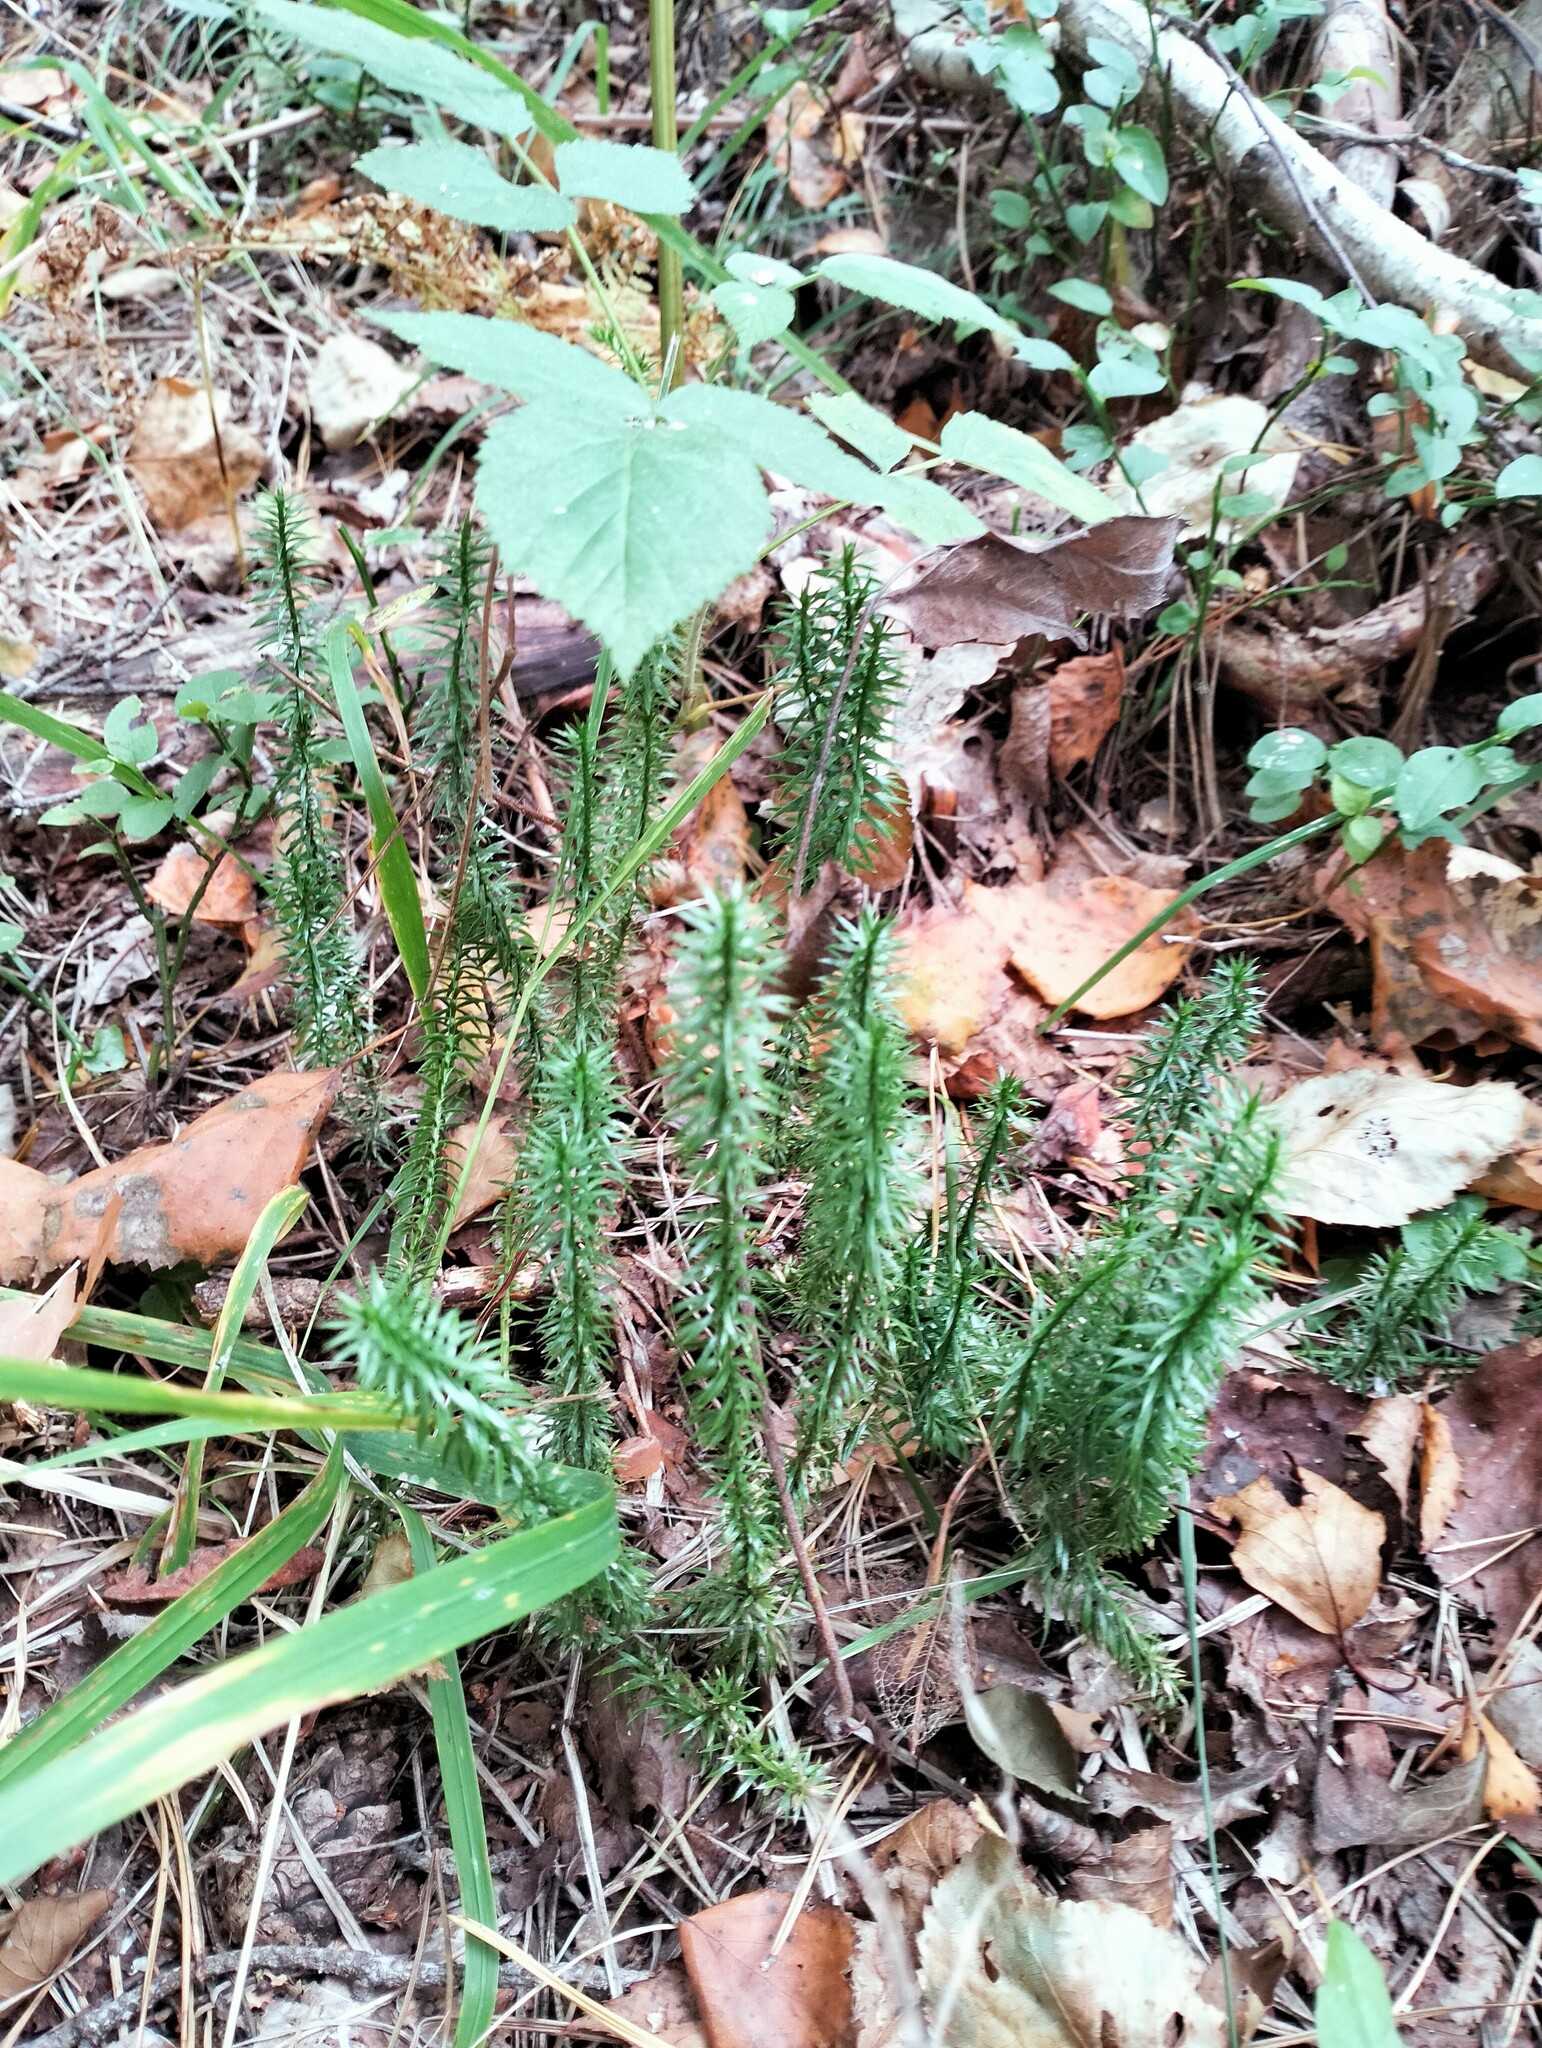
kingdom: Plantae
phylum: Tracheophyta
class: Lycopodiopsida
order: Lycopodiales
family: Lycopodiaceae
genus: Spinulum
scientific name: Spinulum annotinum
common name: Interrupted club-moss
